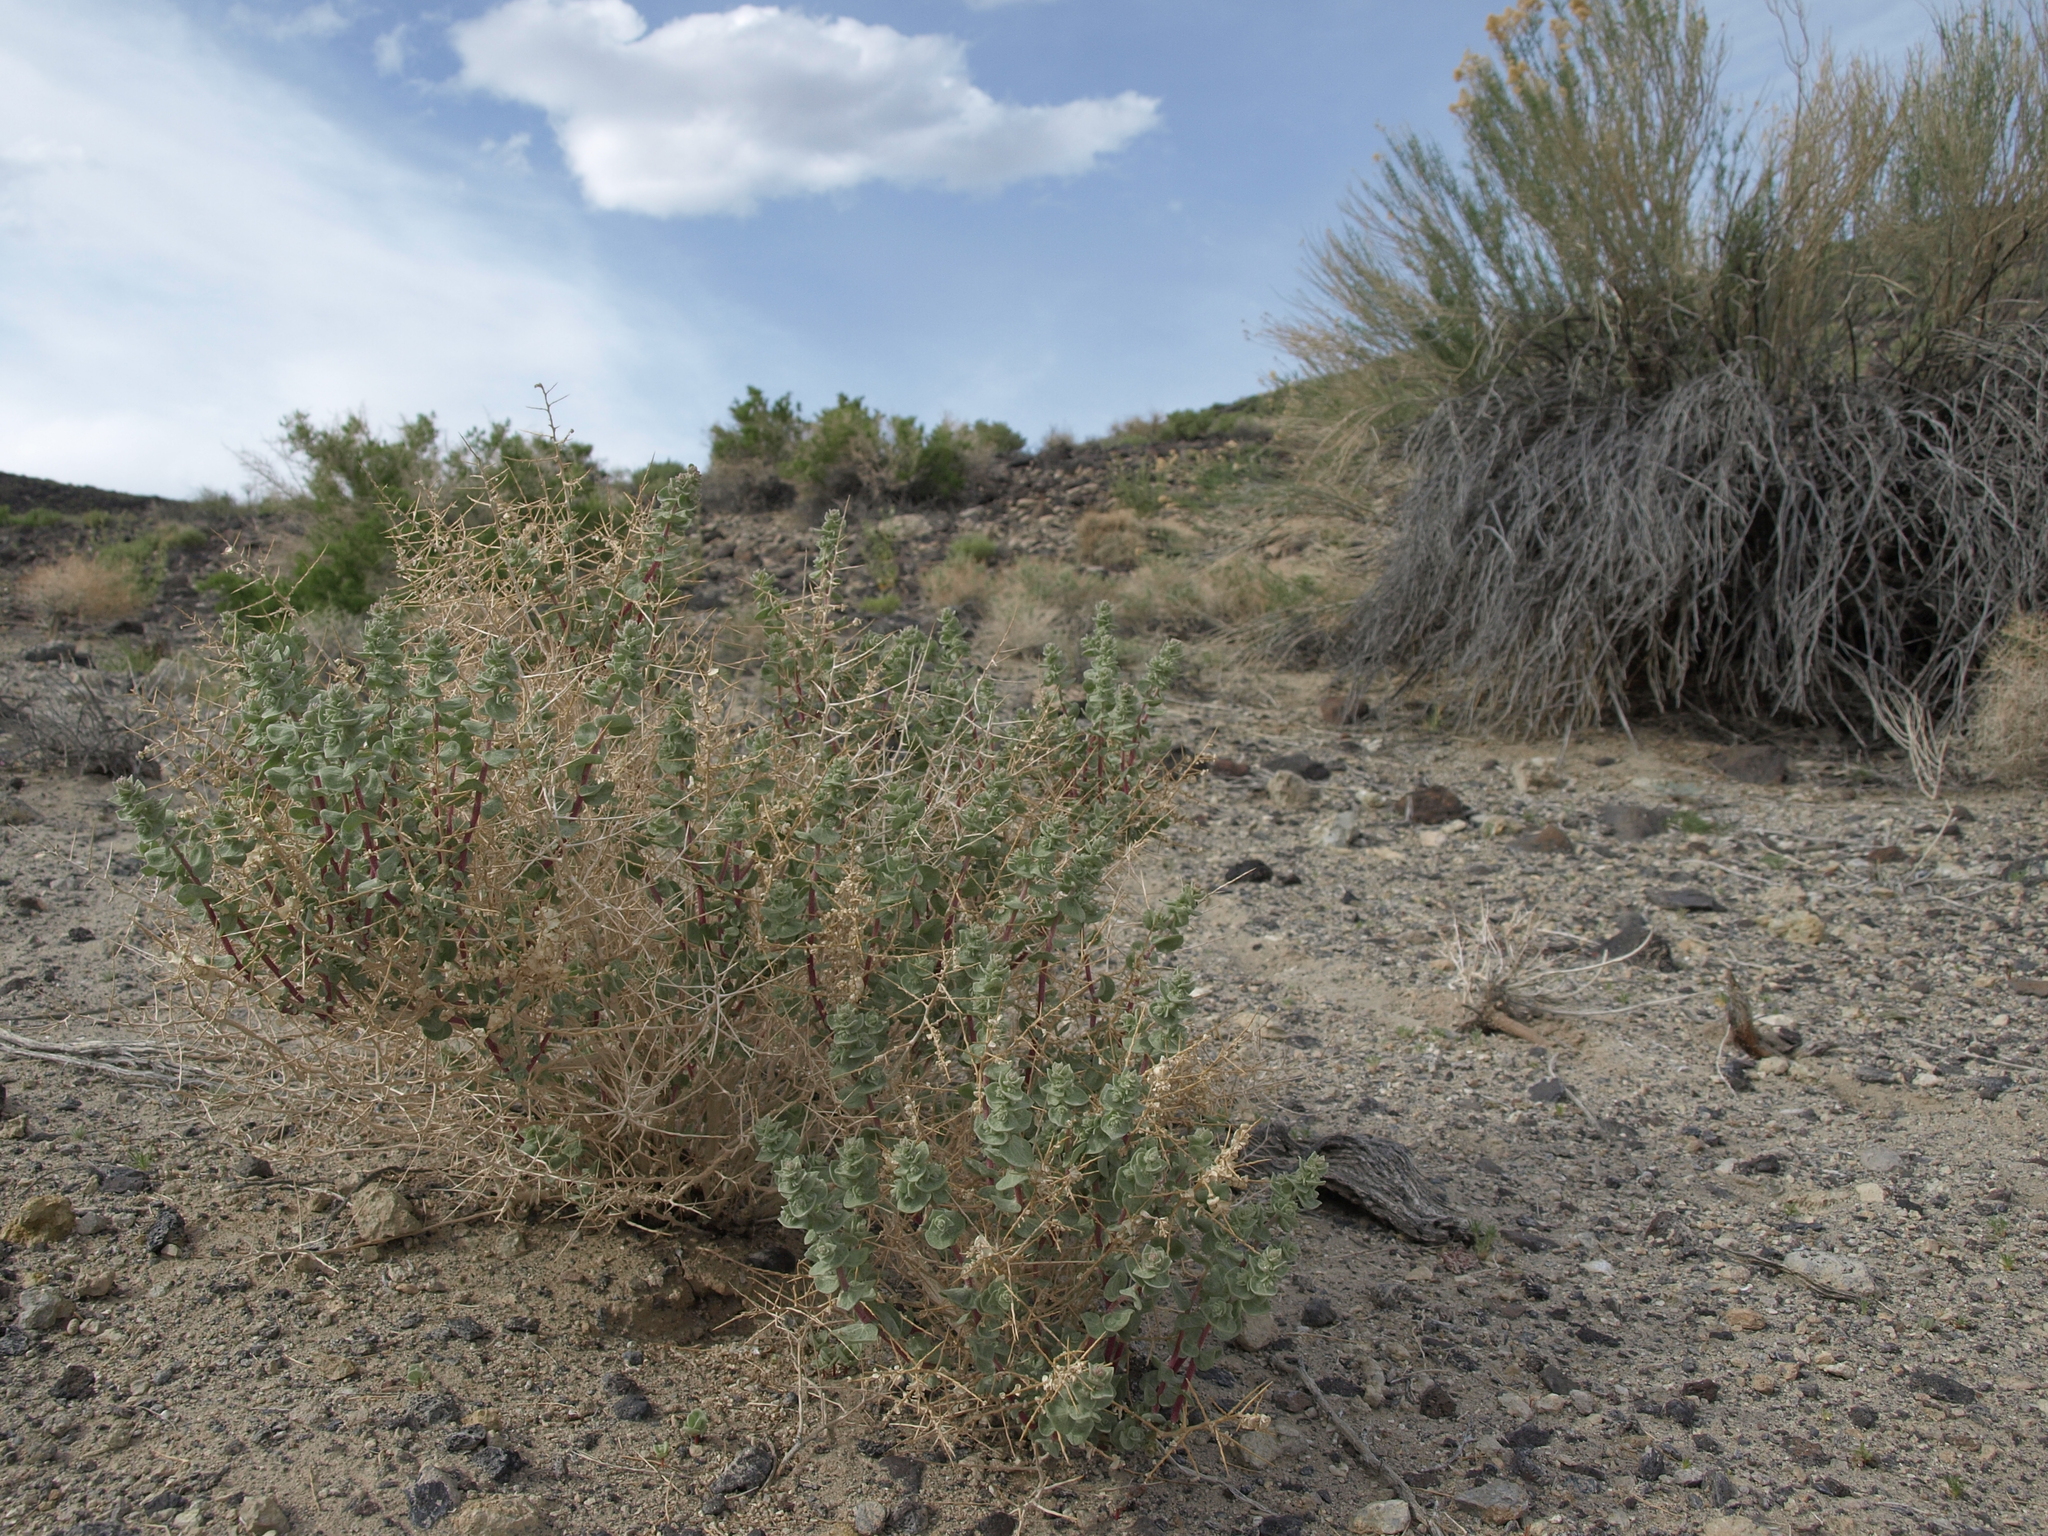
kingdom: Plantae
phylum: Tracheophyta
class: Magnoliopsida
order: Caryophyllales
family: Amaranthaceae
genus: Atriplex
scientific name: Atriplex parryi
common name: Parry's saltbush
